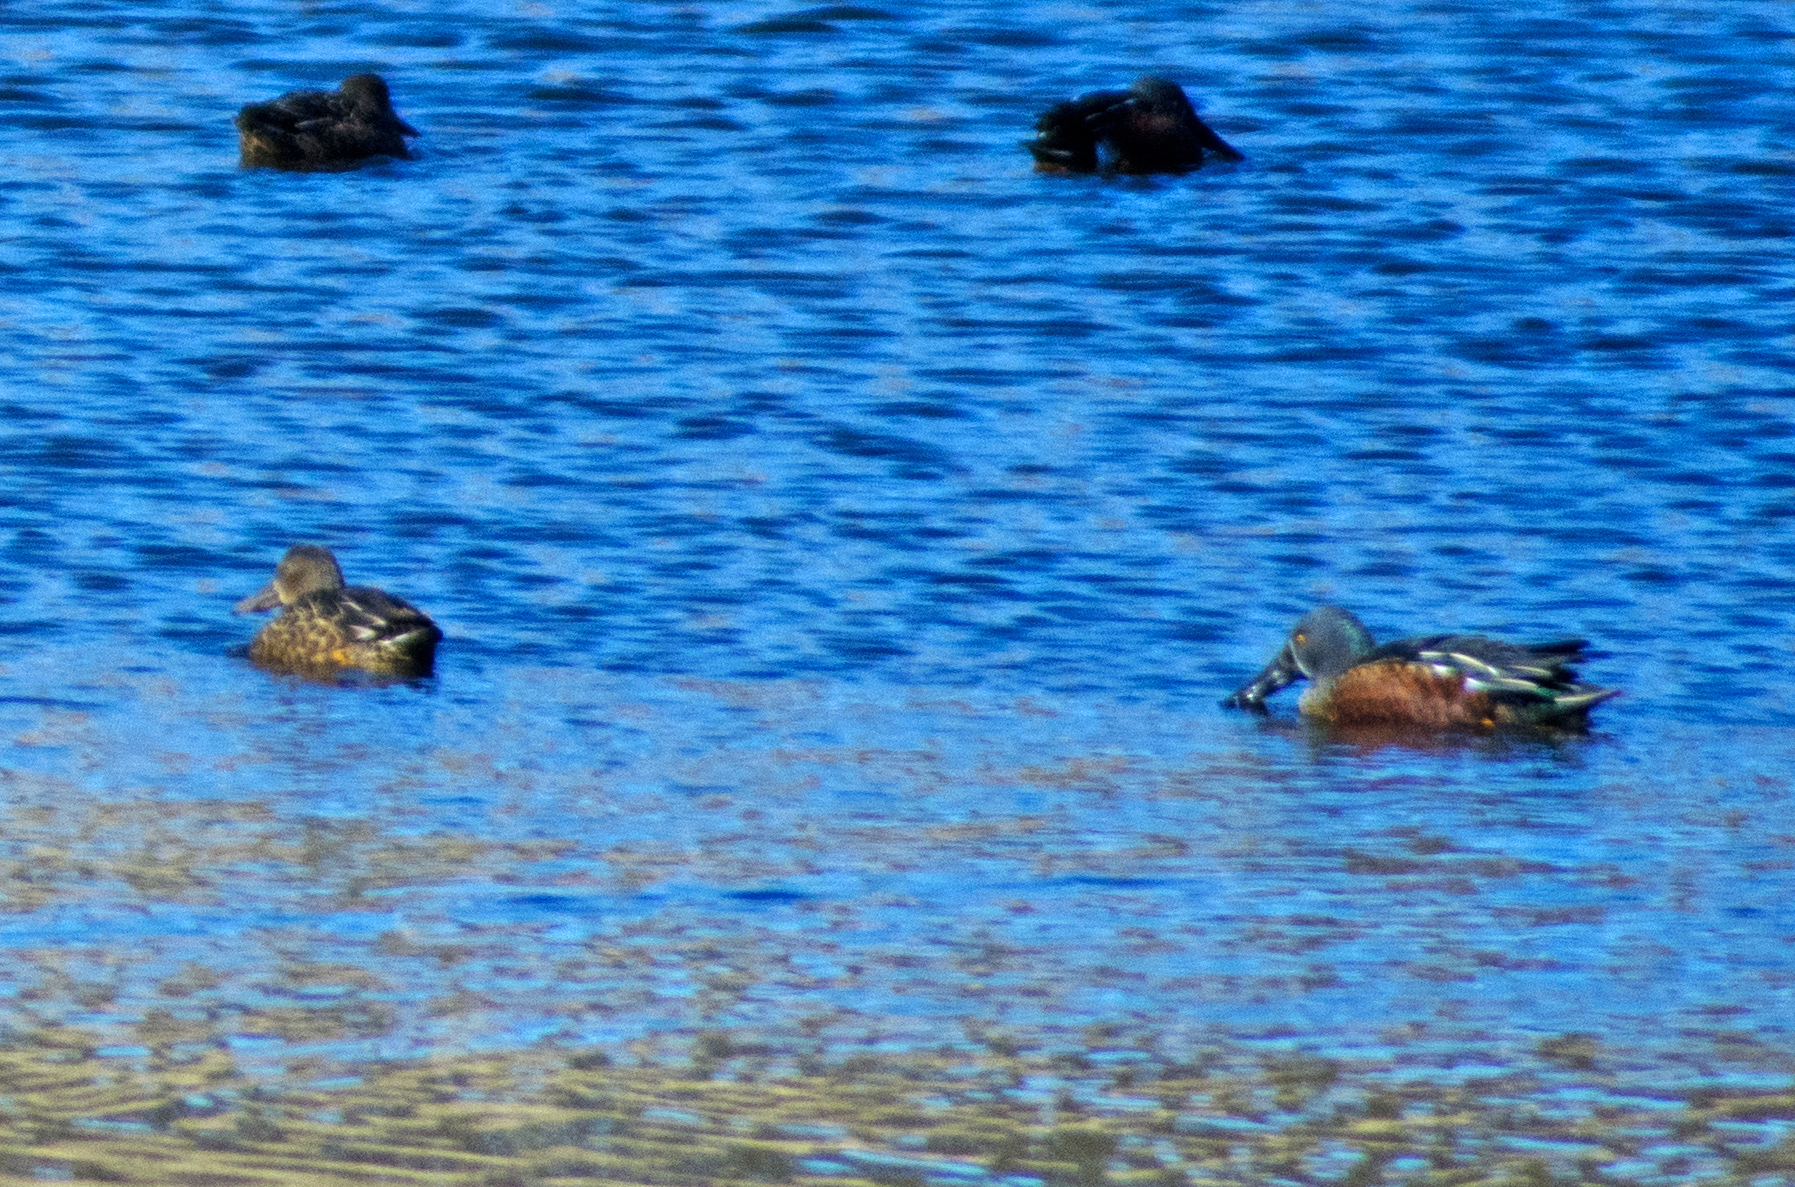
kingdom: Animalia
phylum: Chordata
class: Aves
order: Anseriformes
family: Anatidae
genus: Spatula
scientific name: Spatula rhynchotis
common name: Australian shoveler
